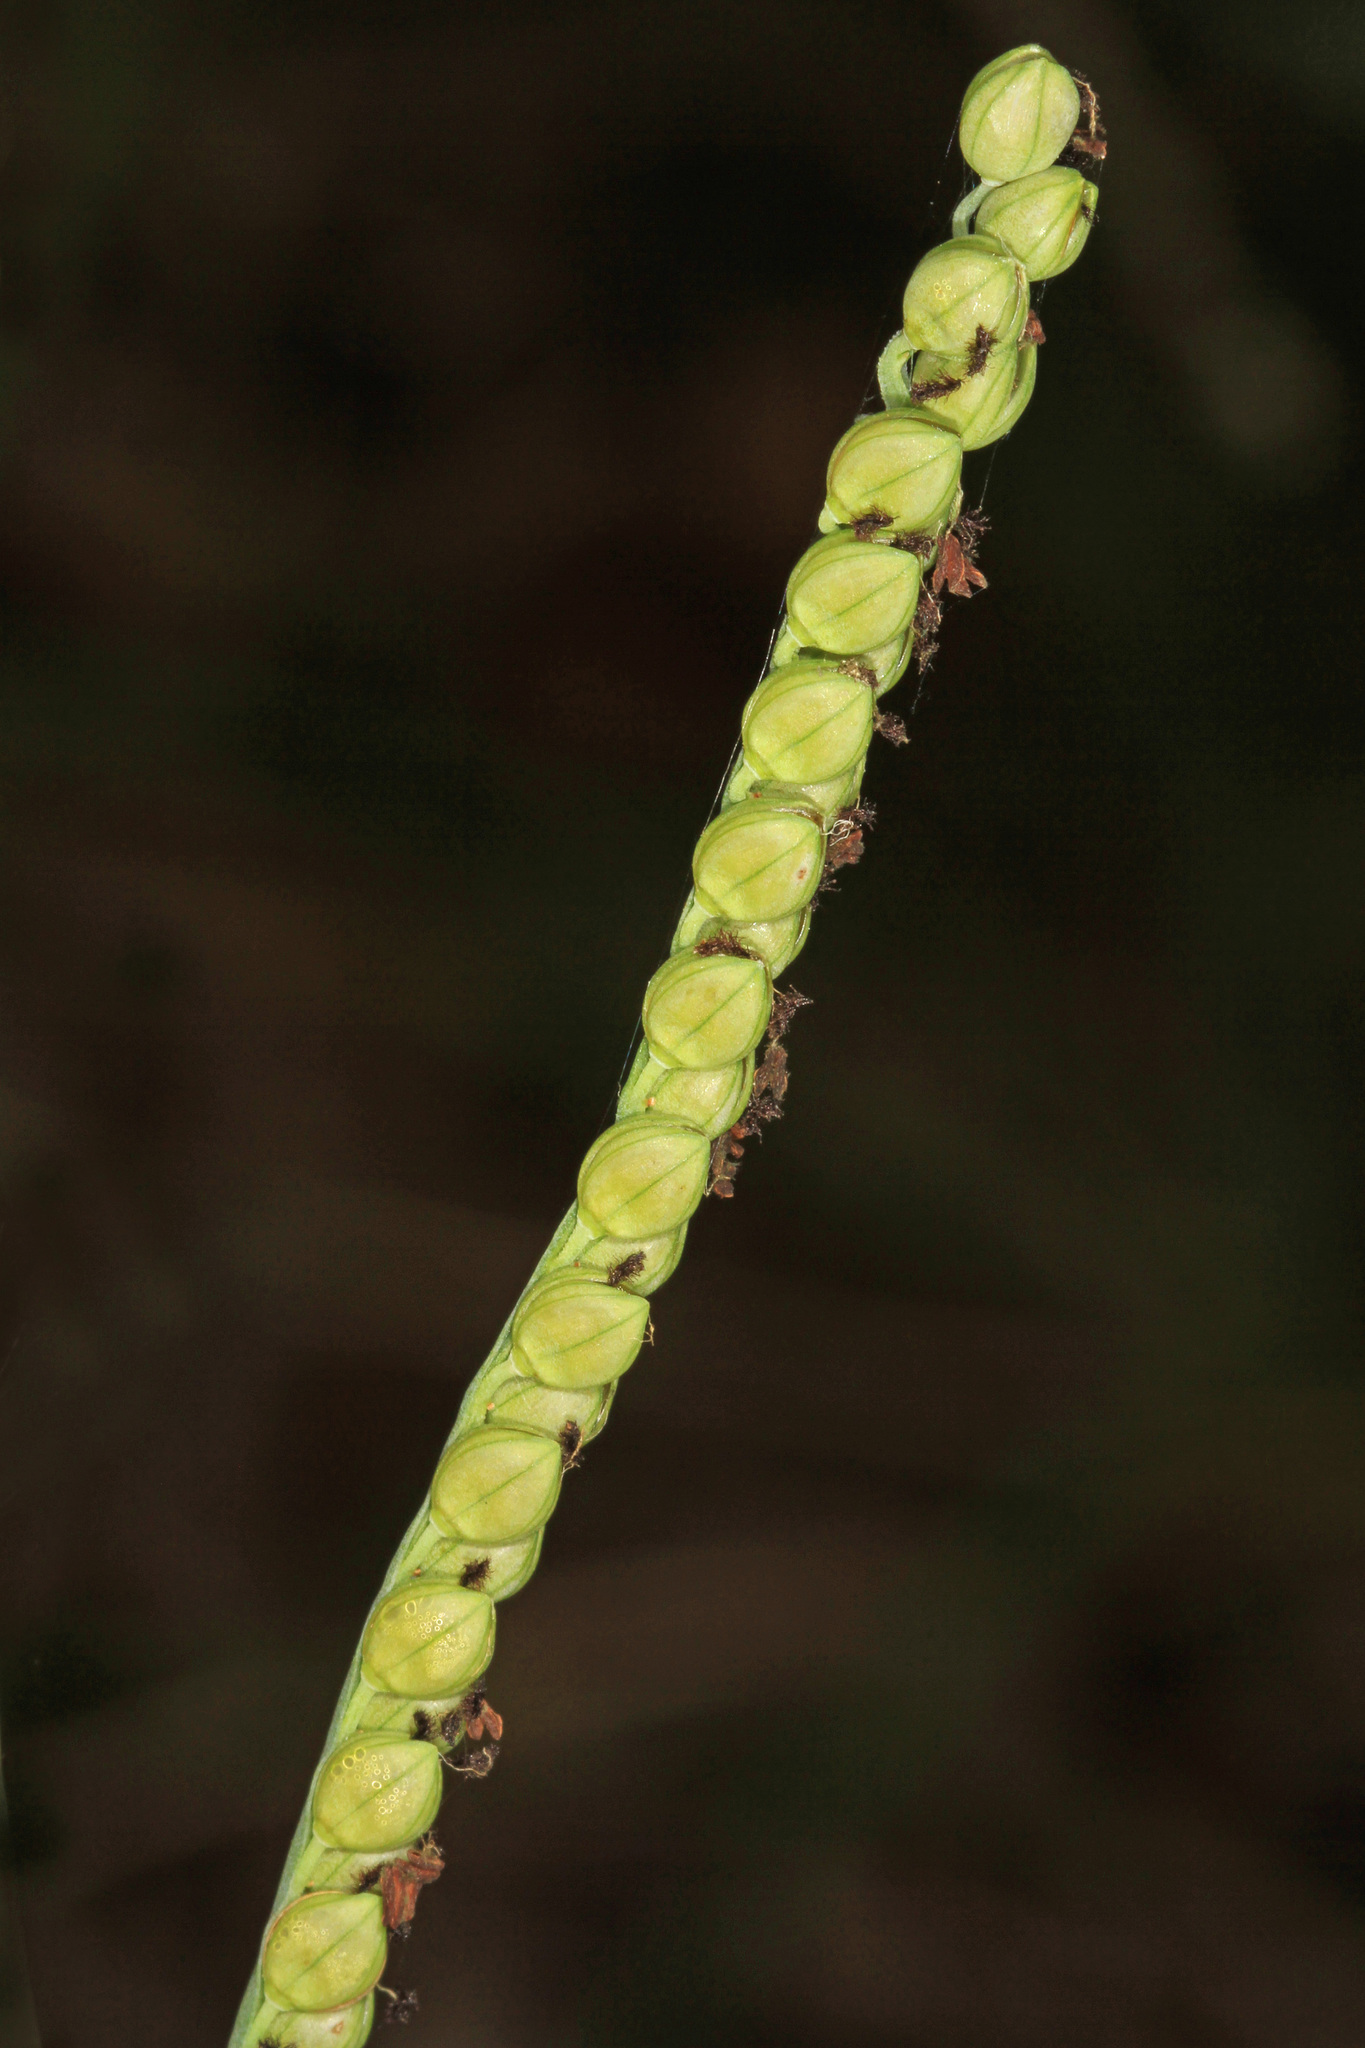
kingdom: Plantae
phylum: Tracheophyta
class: Liliopsida
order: Poales
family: Poaceae
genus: Paspalum
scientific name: Paspalum floridanum
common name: Florida paspalum
